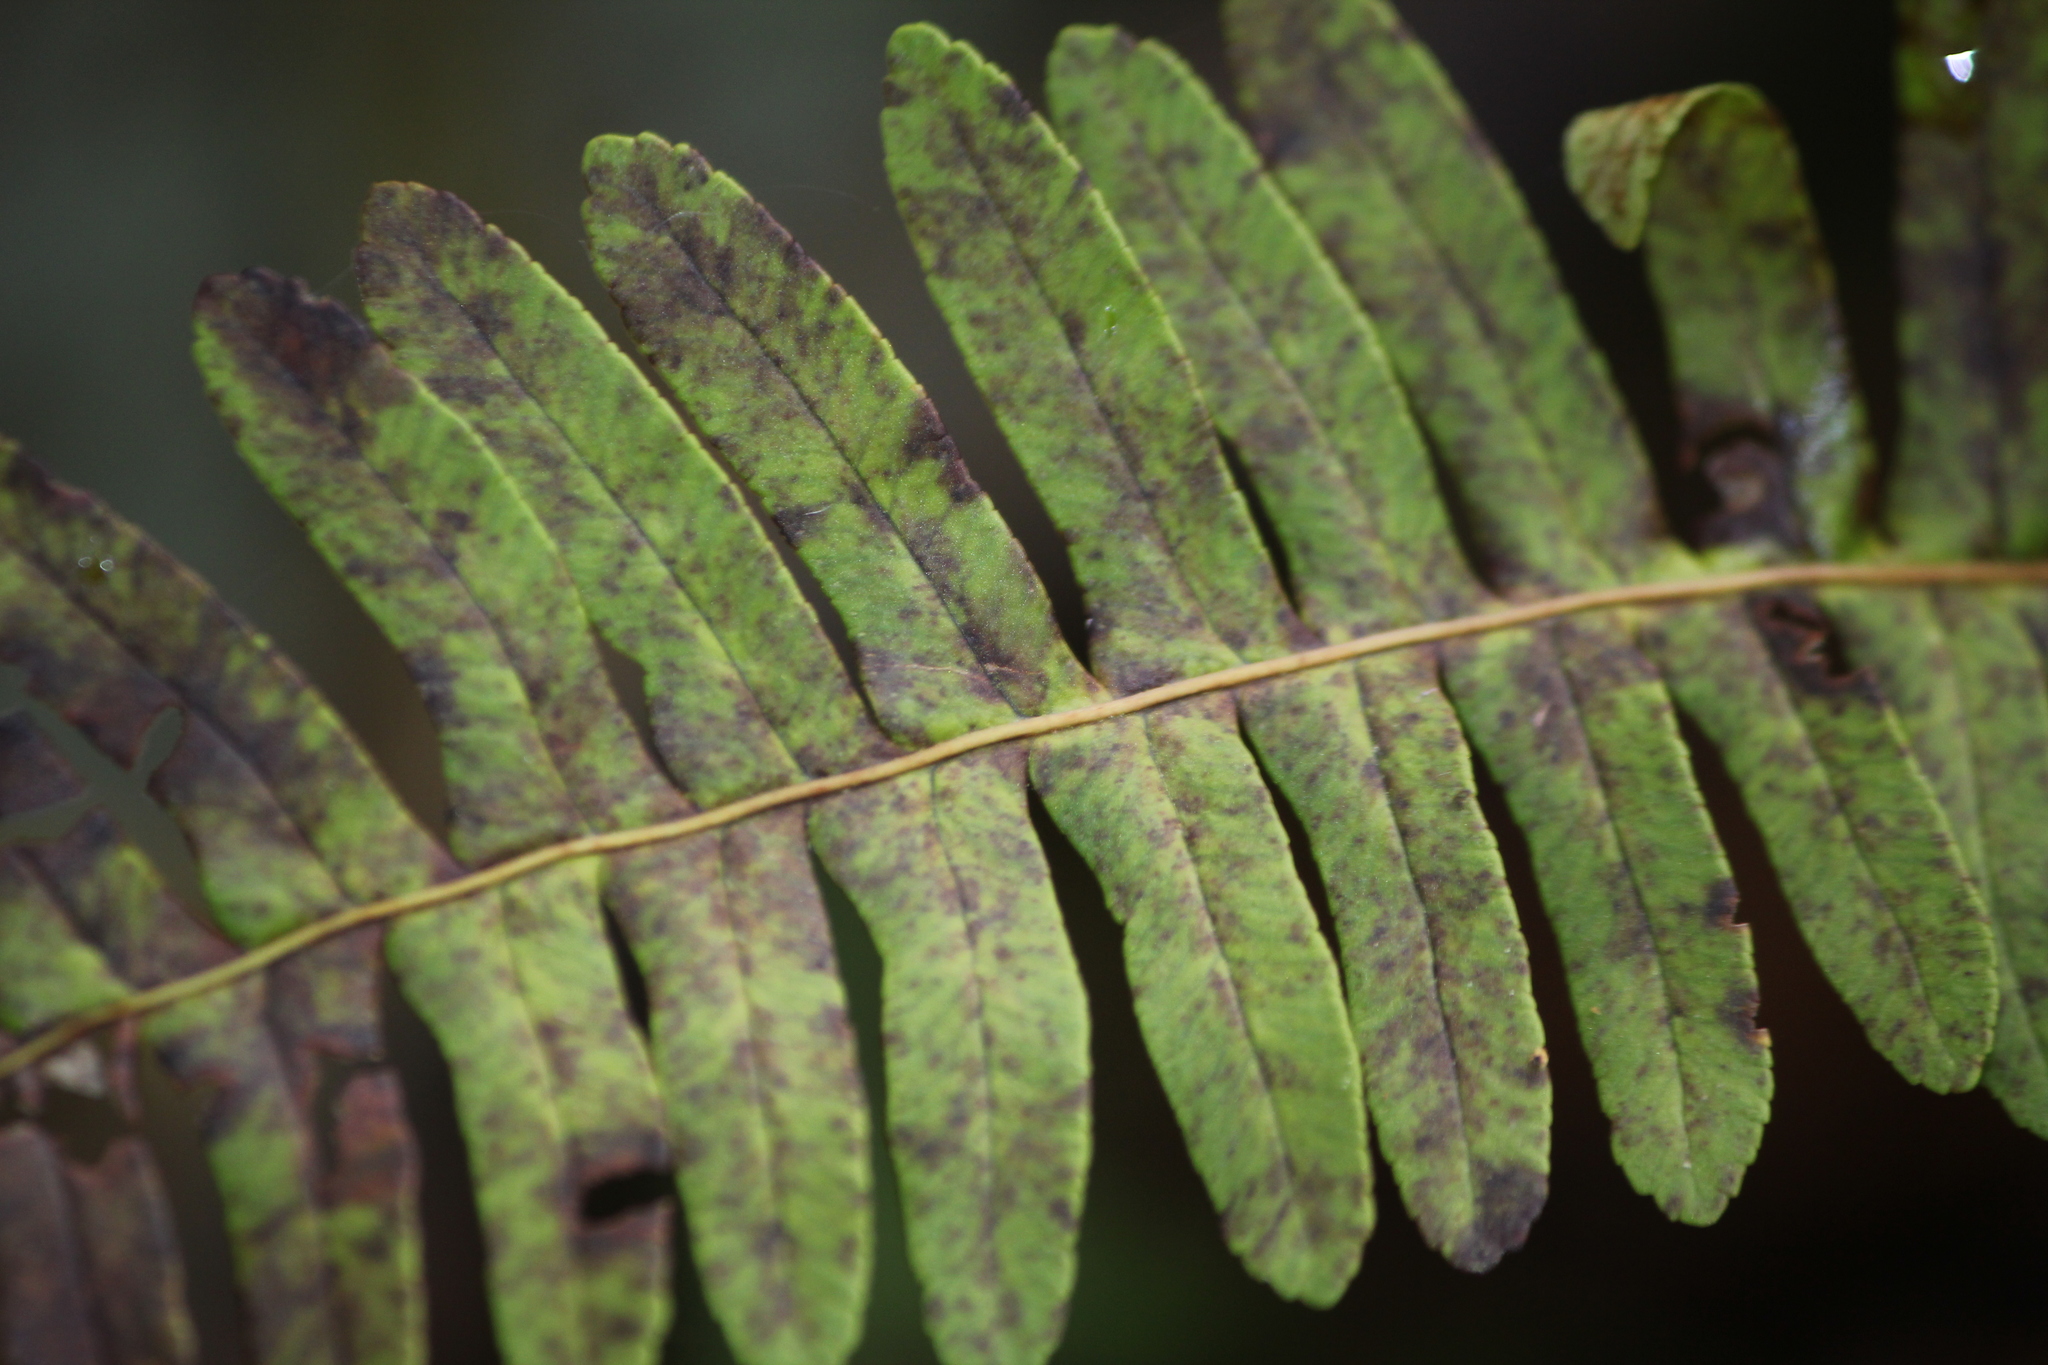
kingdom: Plantae
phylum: Tracheophyta
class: Polypodiopsida
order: Polypodiales
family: Polypodiaceae
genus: Polypodium
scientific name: Polypodium virginianum
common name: American wall fern
